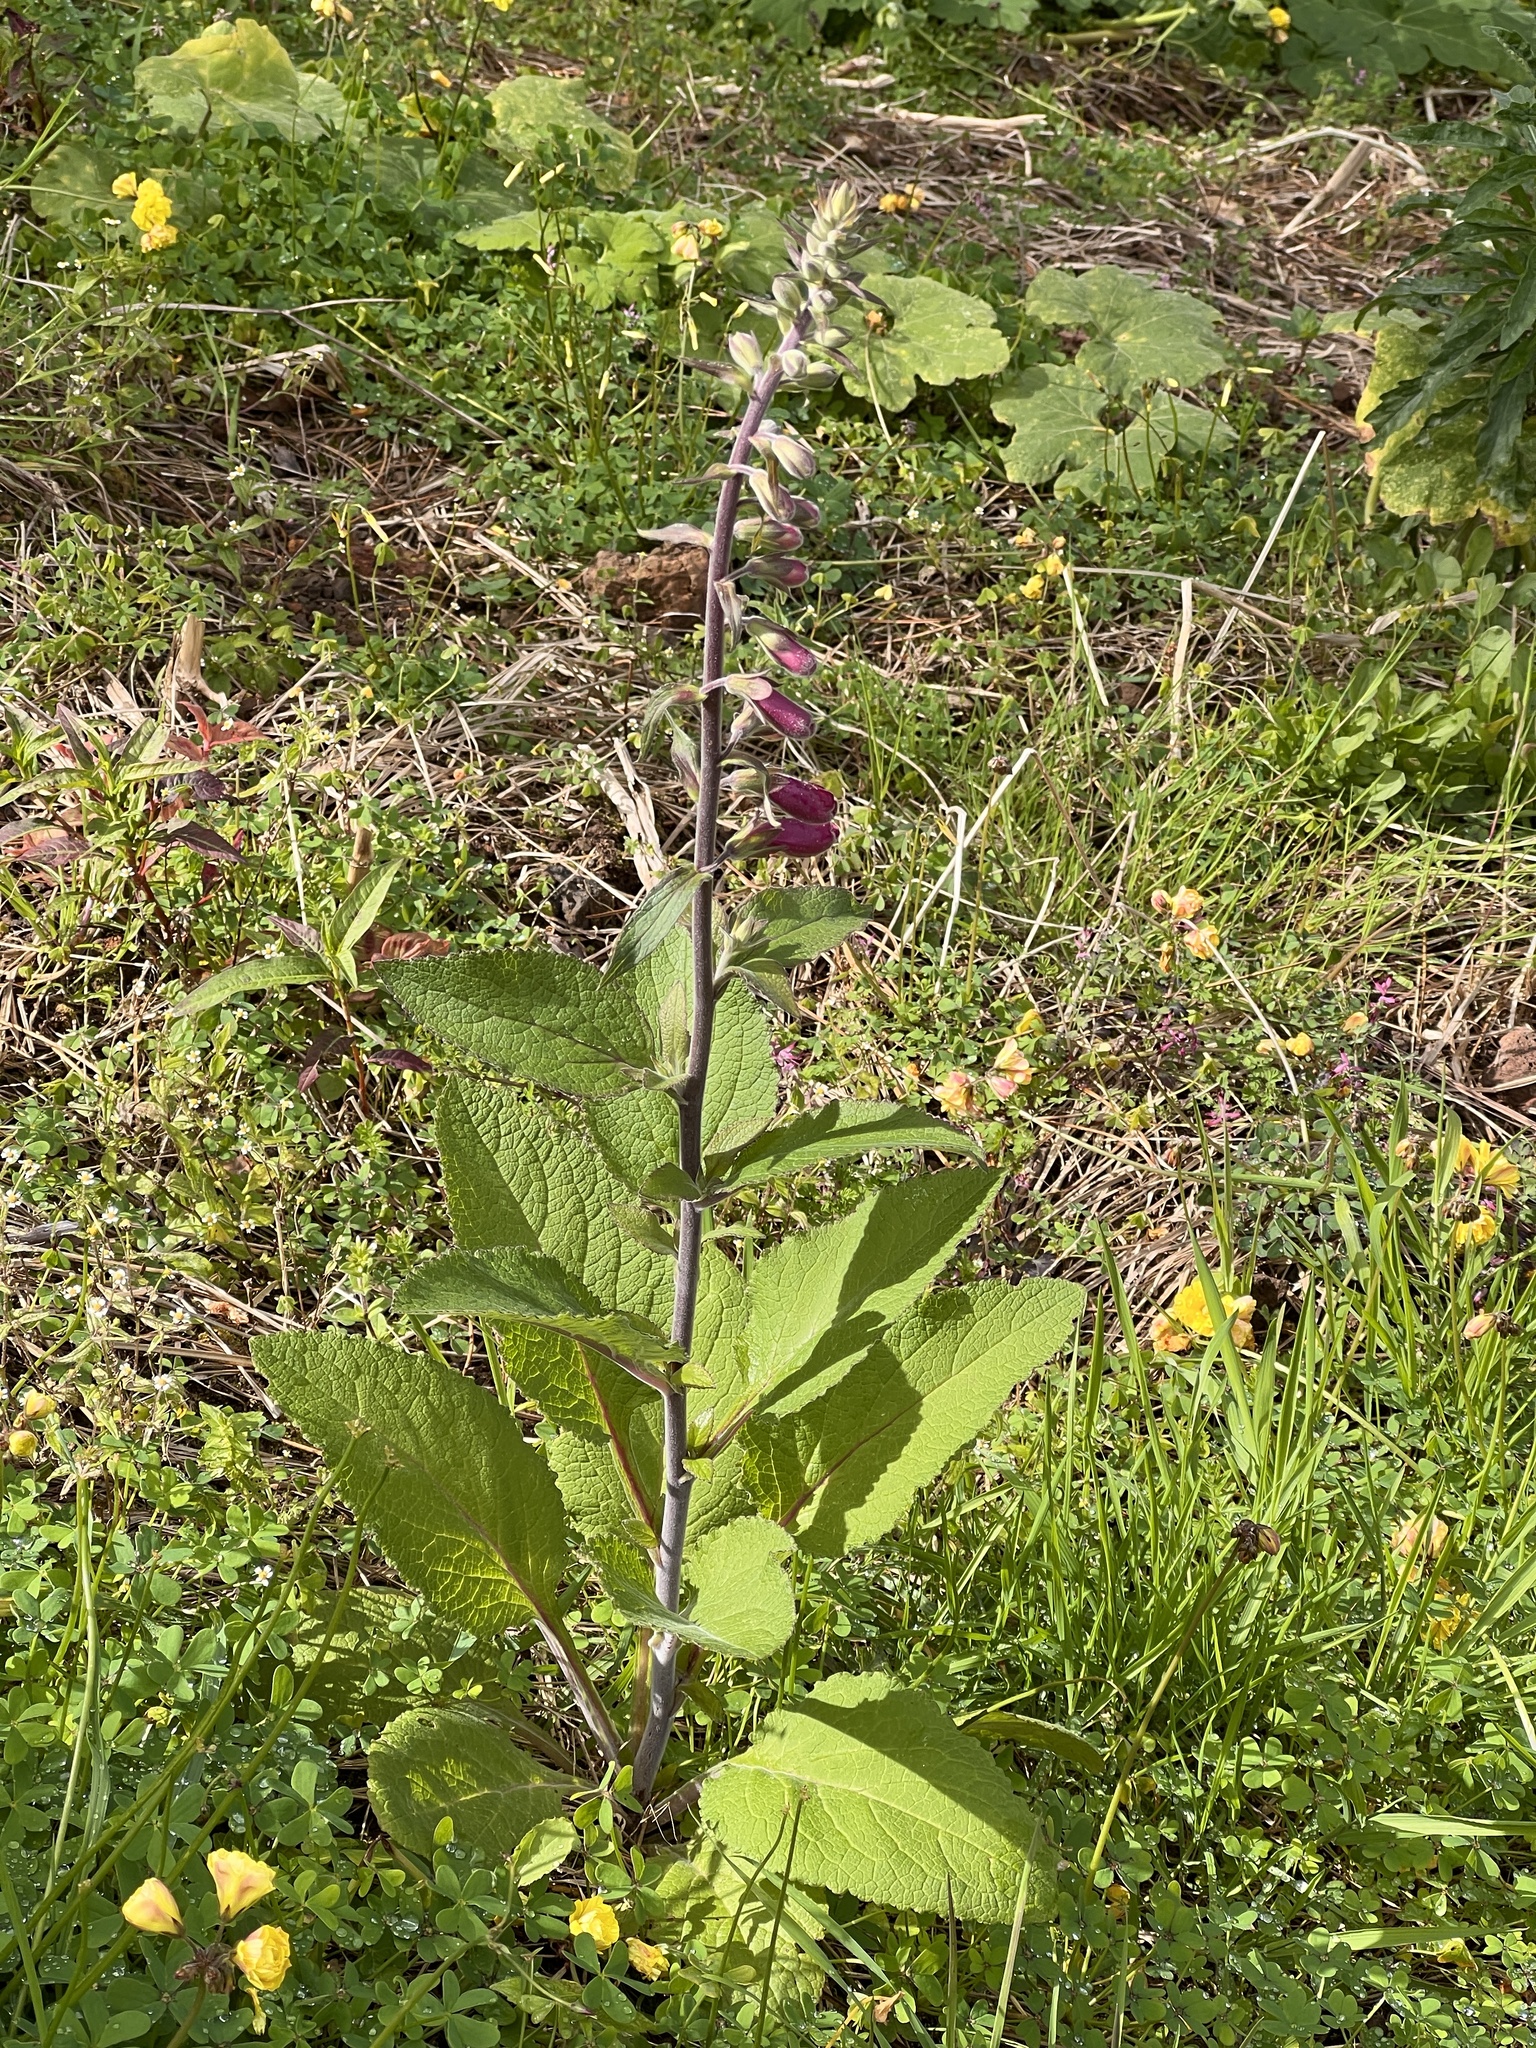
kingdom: Plantae
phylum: Tracheophyta
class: Magnoliopsida
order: Lamiales
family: Plantaginaceae
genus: Digitalis
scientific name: Digitalis purpurea
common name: Foxglove
